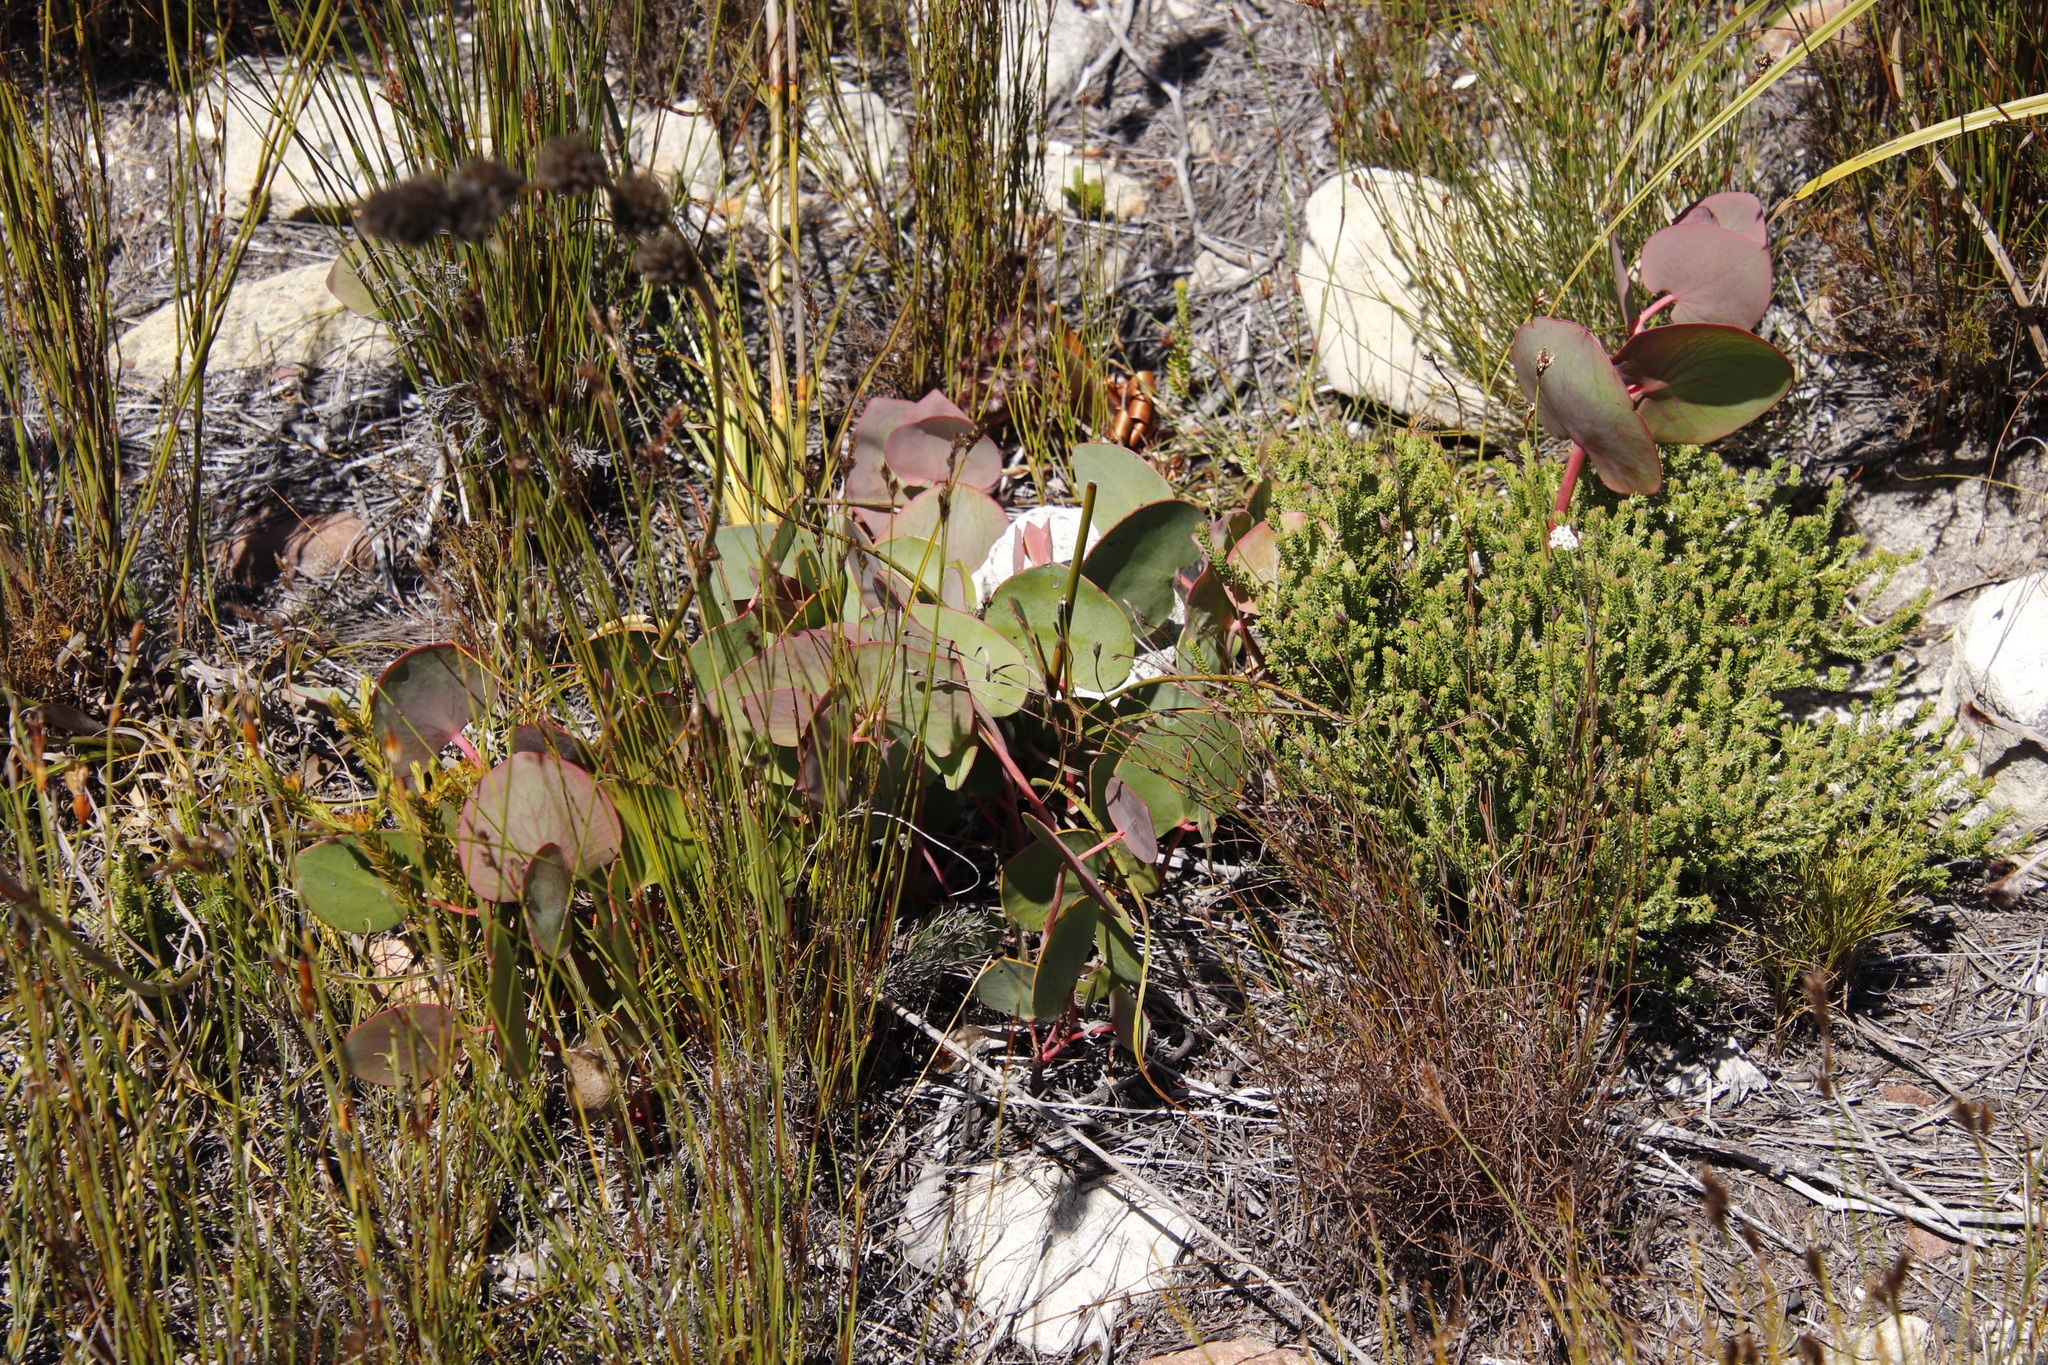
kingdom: Plantae
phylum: Tracheophyta
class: Magnoliopsida
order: Proteales
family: Proteaceae
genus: Protea
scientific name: Protea cordata
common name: Heart-leaf sugarbush
